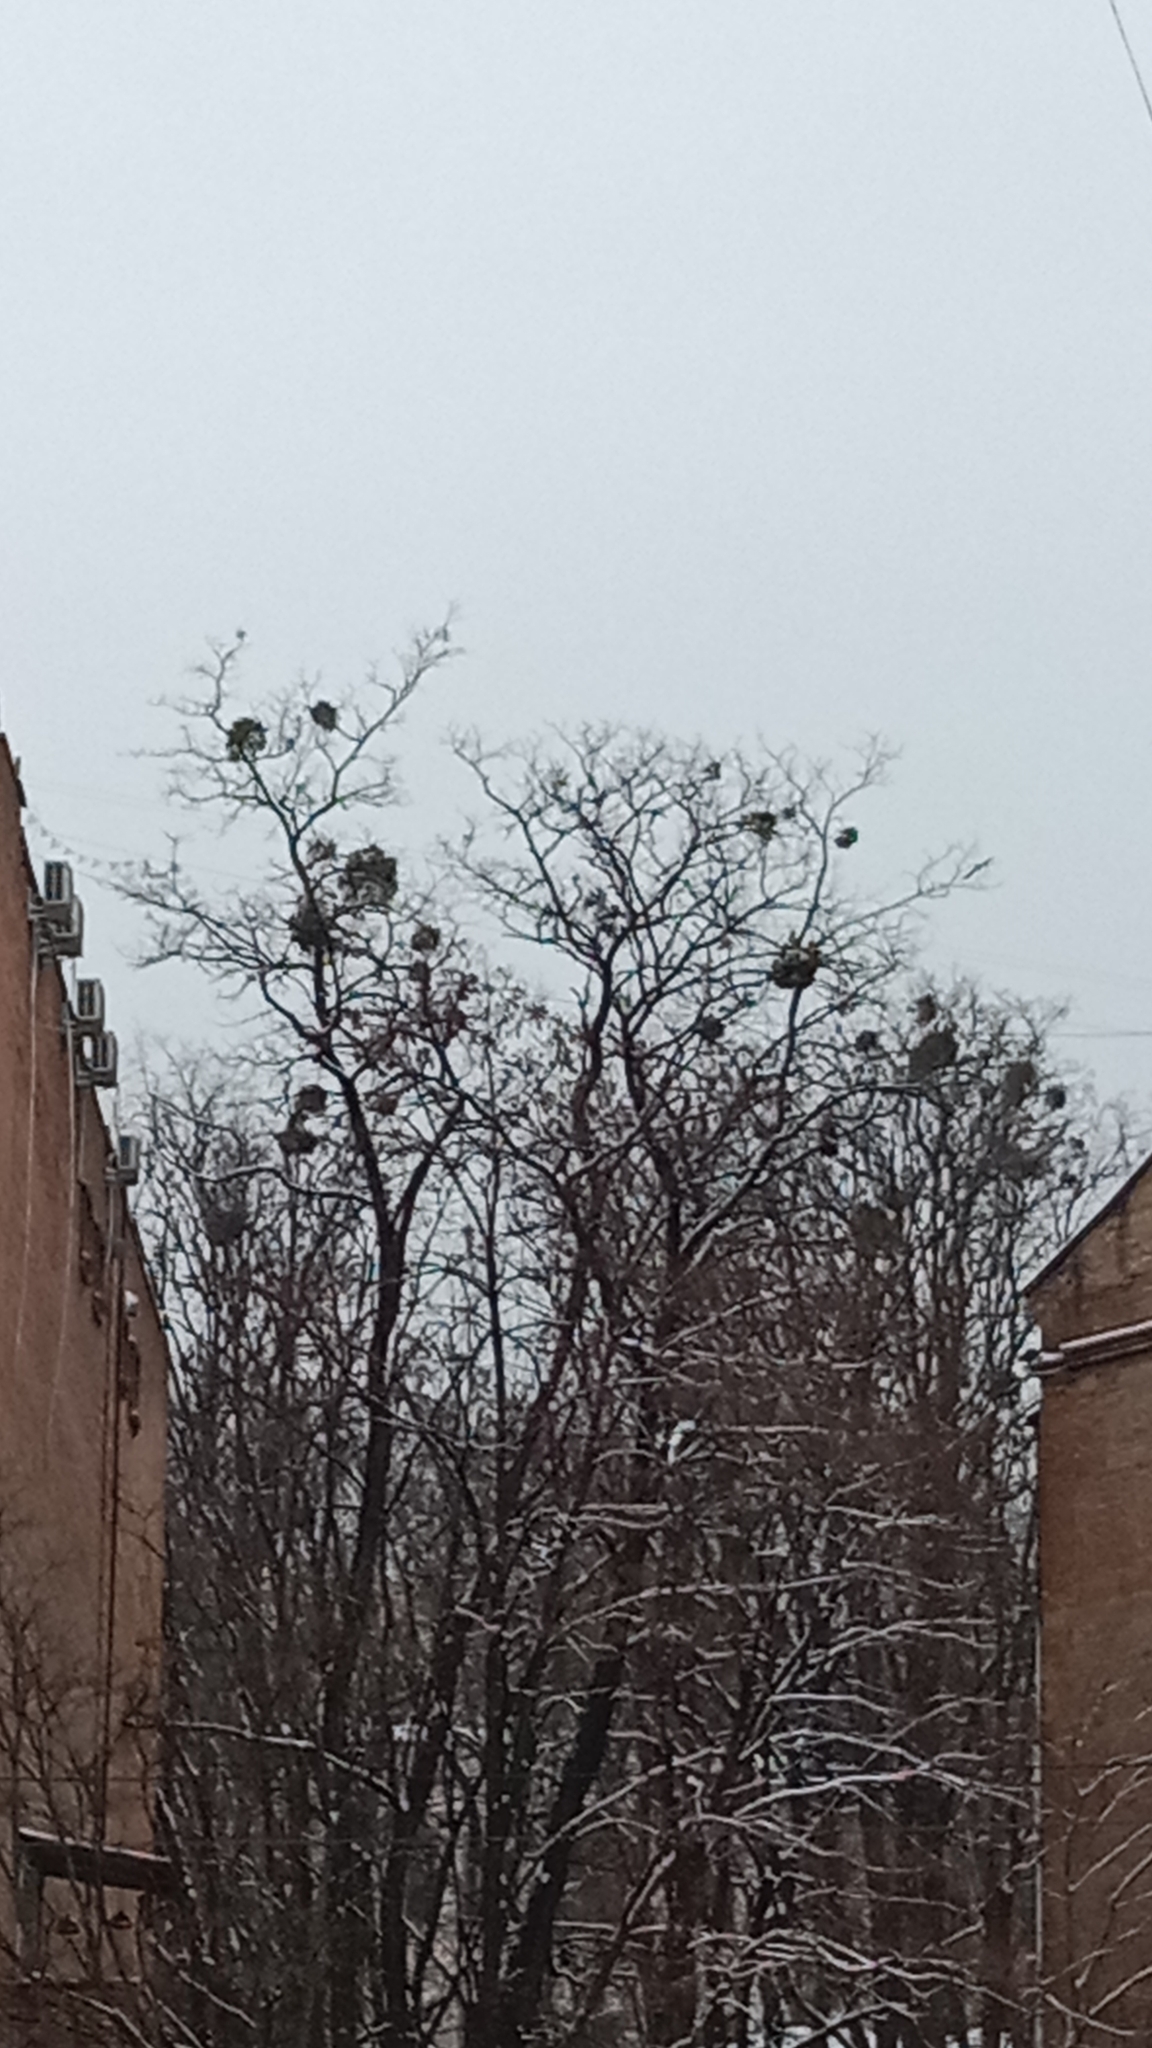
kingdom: Plantae
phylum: Tracheophyta
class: Magnoliopsida
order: Santalales
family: Viscaceae
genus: Viscum
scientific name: Viscum album
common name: Mistletoe
